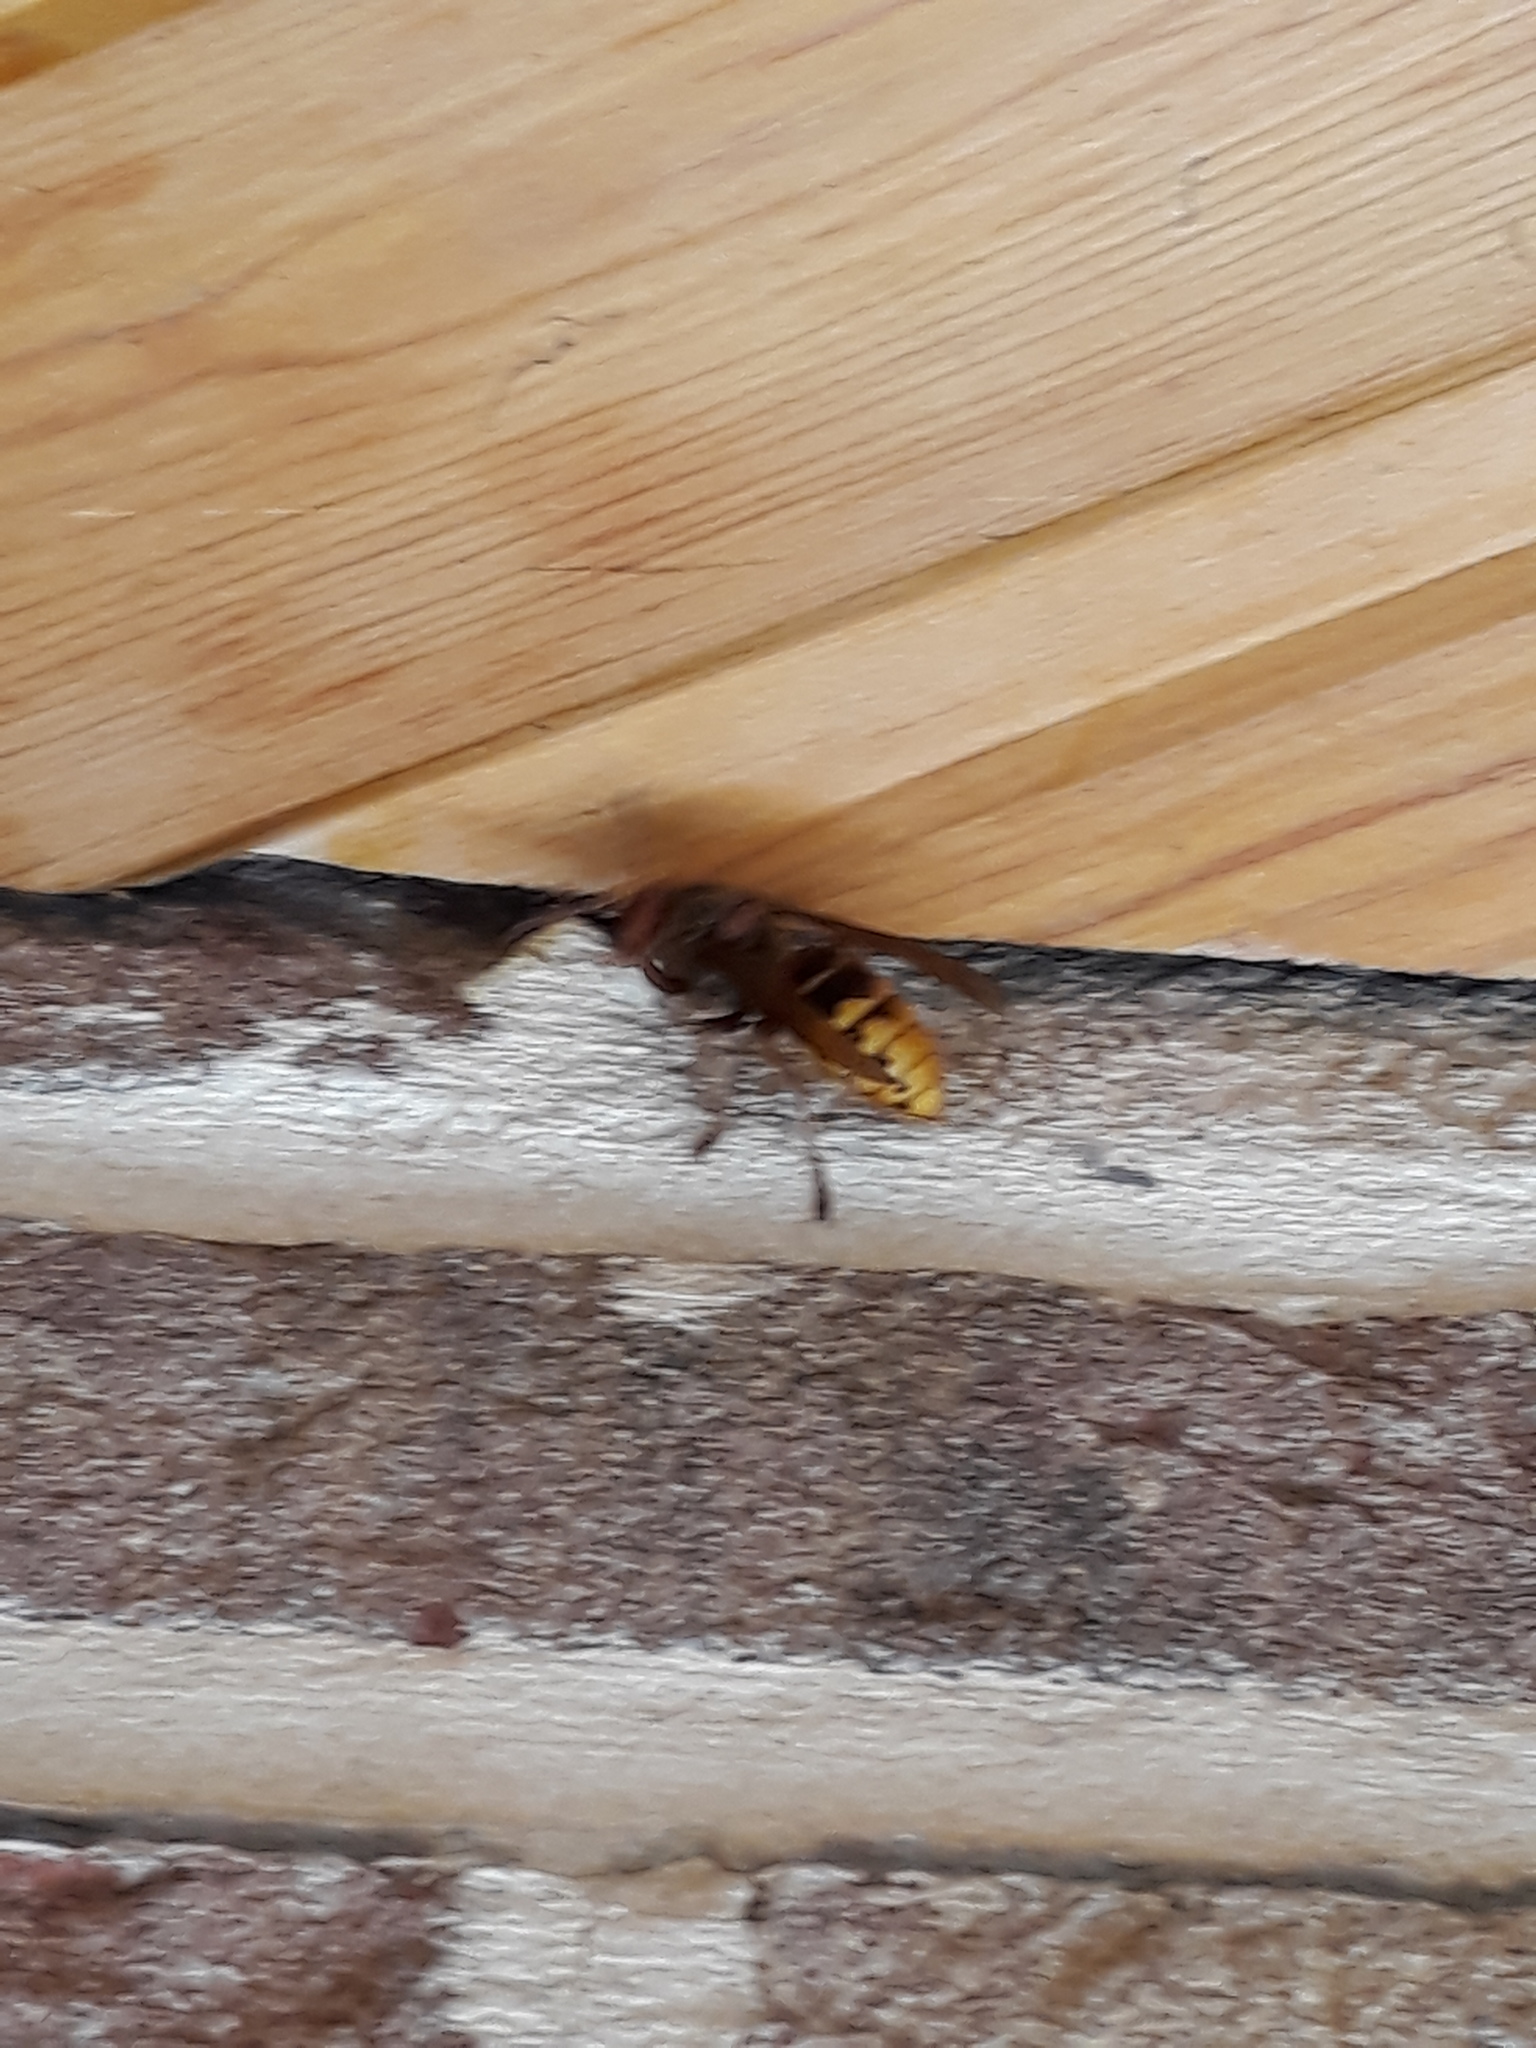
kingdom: Animalia
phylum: Arthropoda
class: Insecta
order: Hymenoptera
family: Vespidae
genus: Vespa
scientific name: Vespa crabro
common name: Hornet
